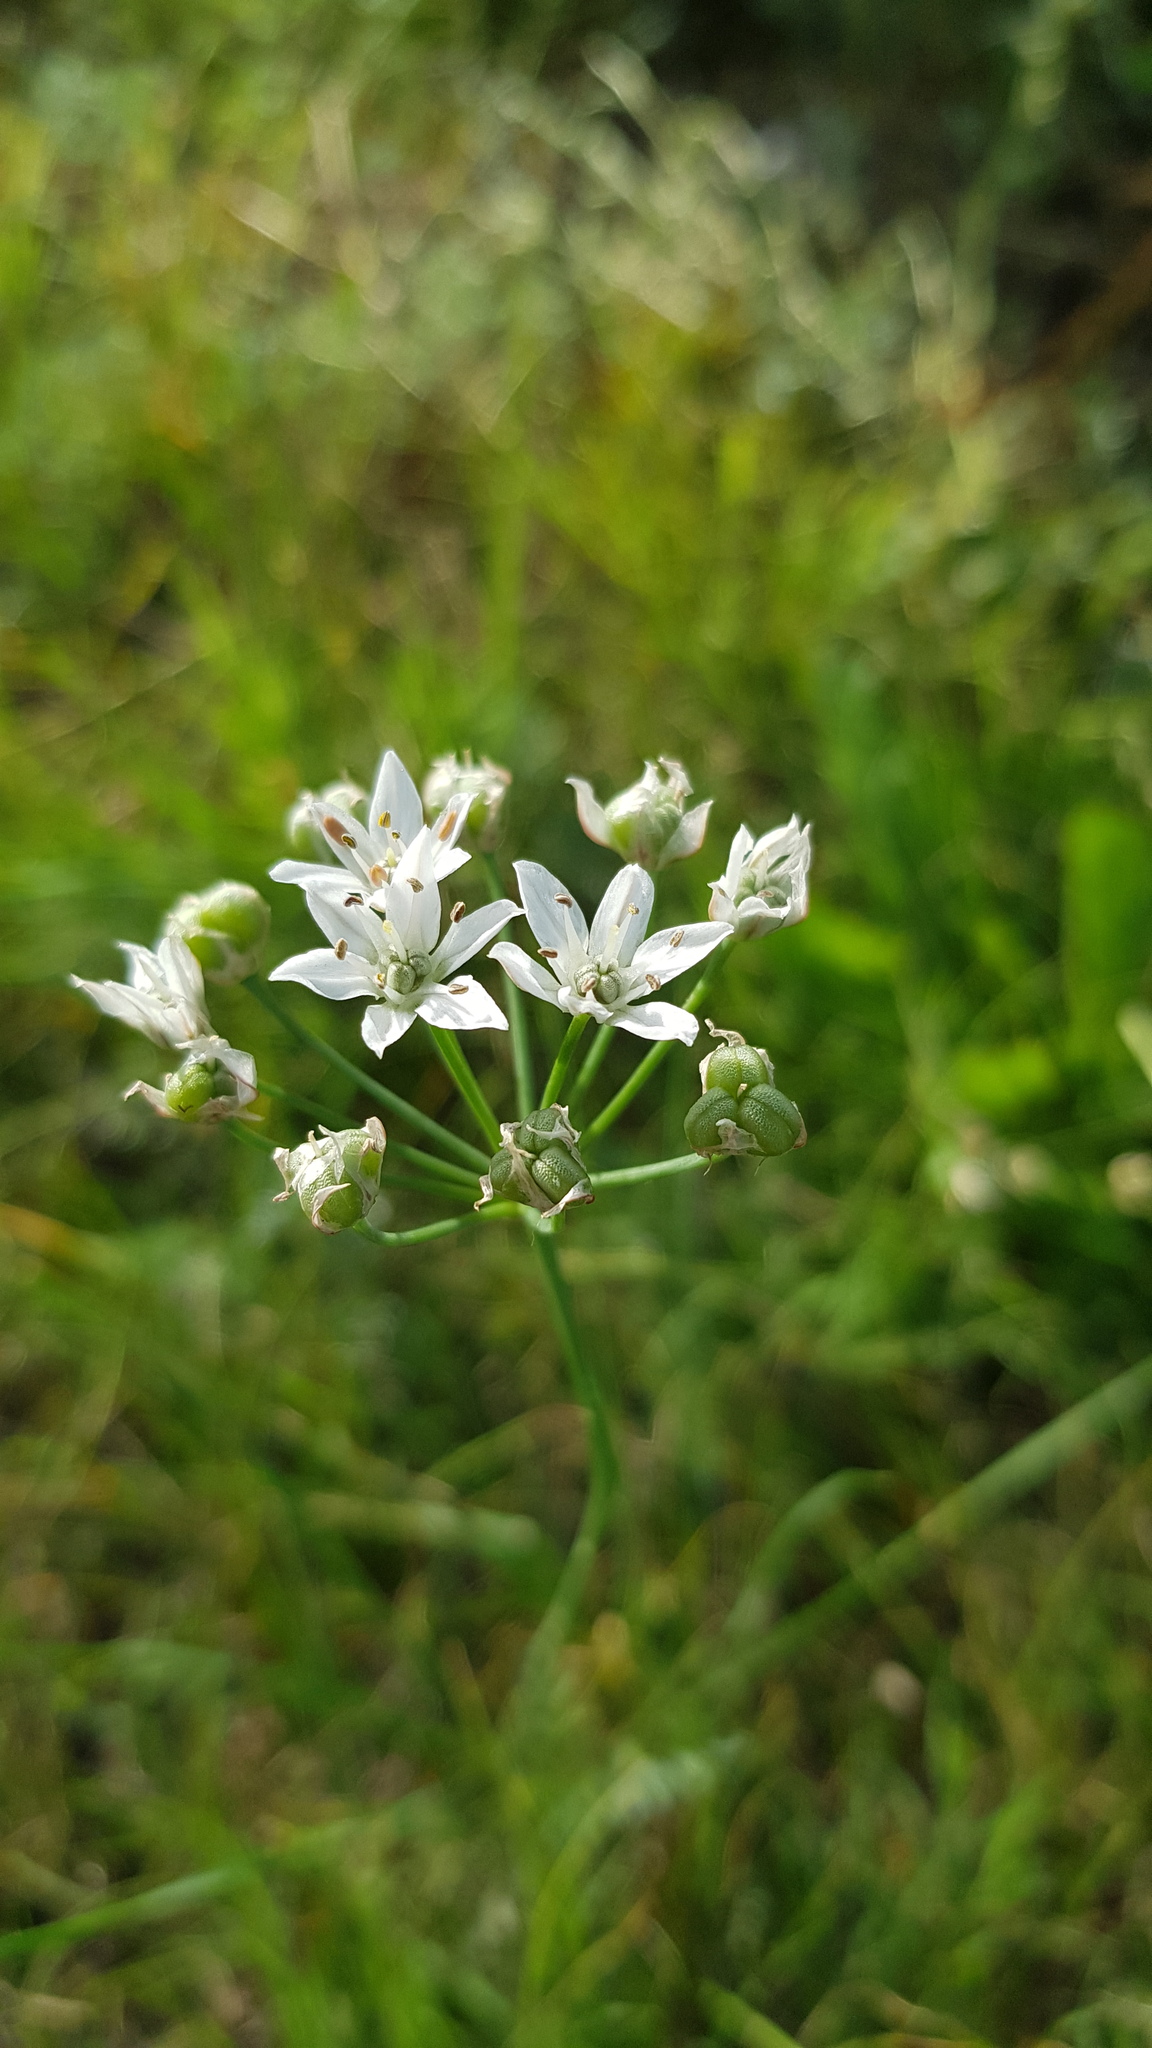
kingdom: Plantae
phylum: Tracheophyta
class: Liliopsida
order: Asparagales
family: Amaryllidaceae
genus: Allium
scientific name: Allium ramosum
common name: Fragrant garlic
